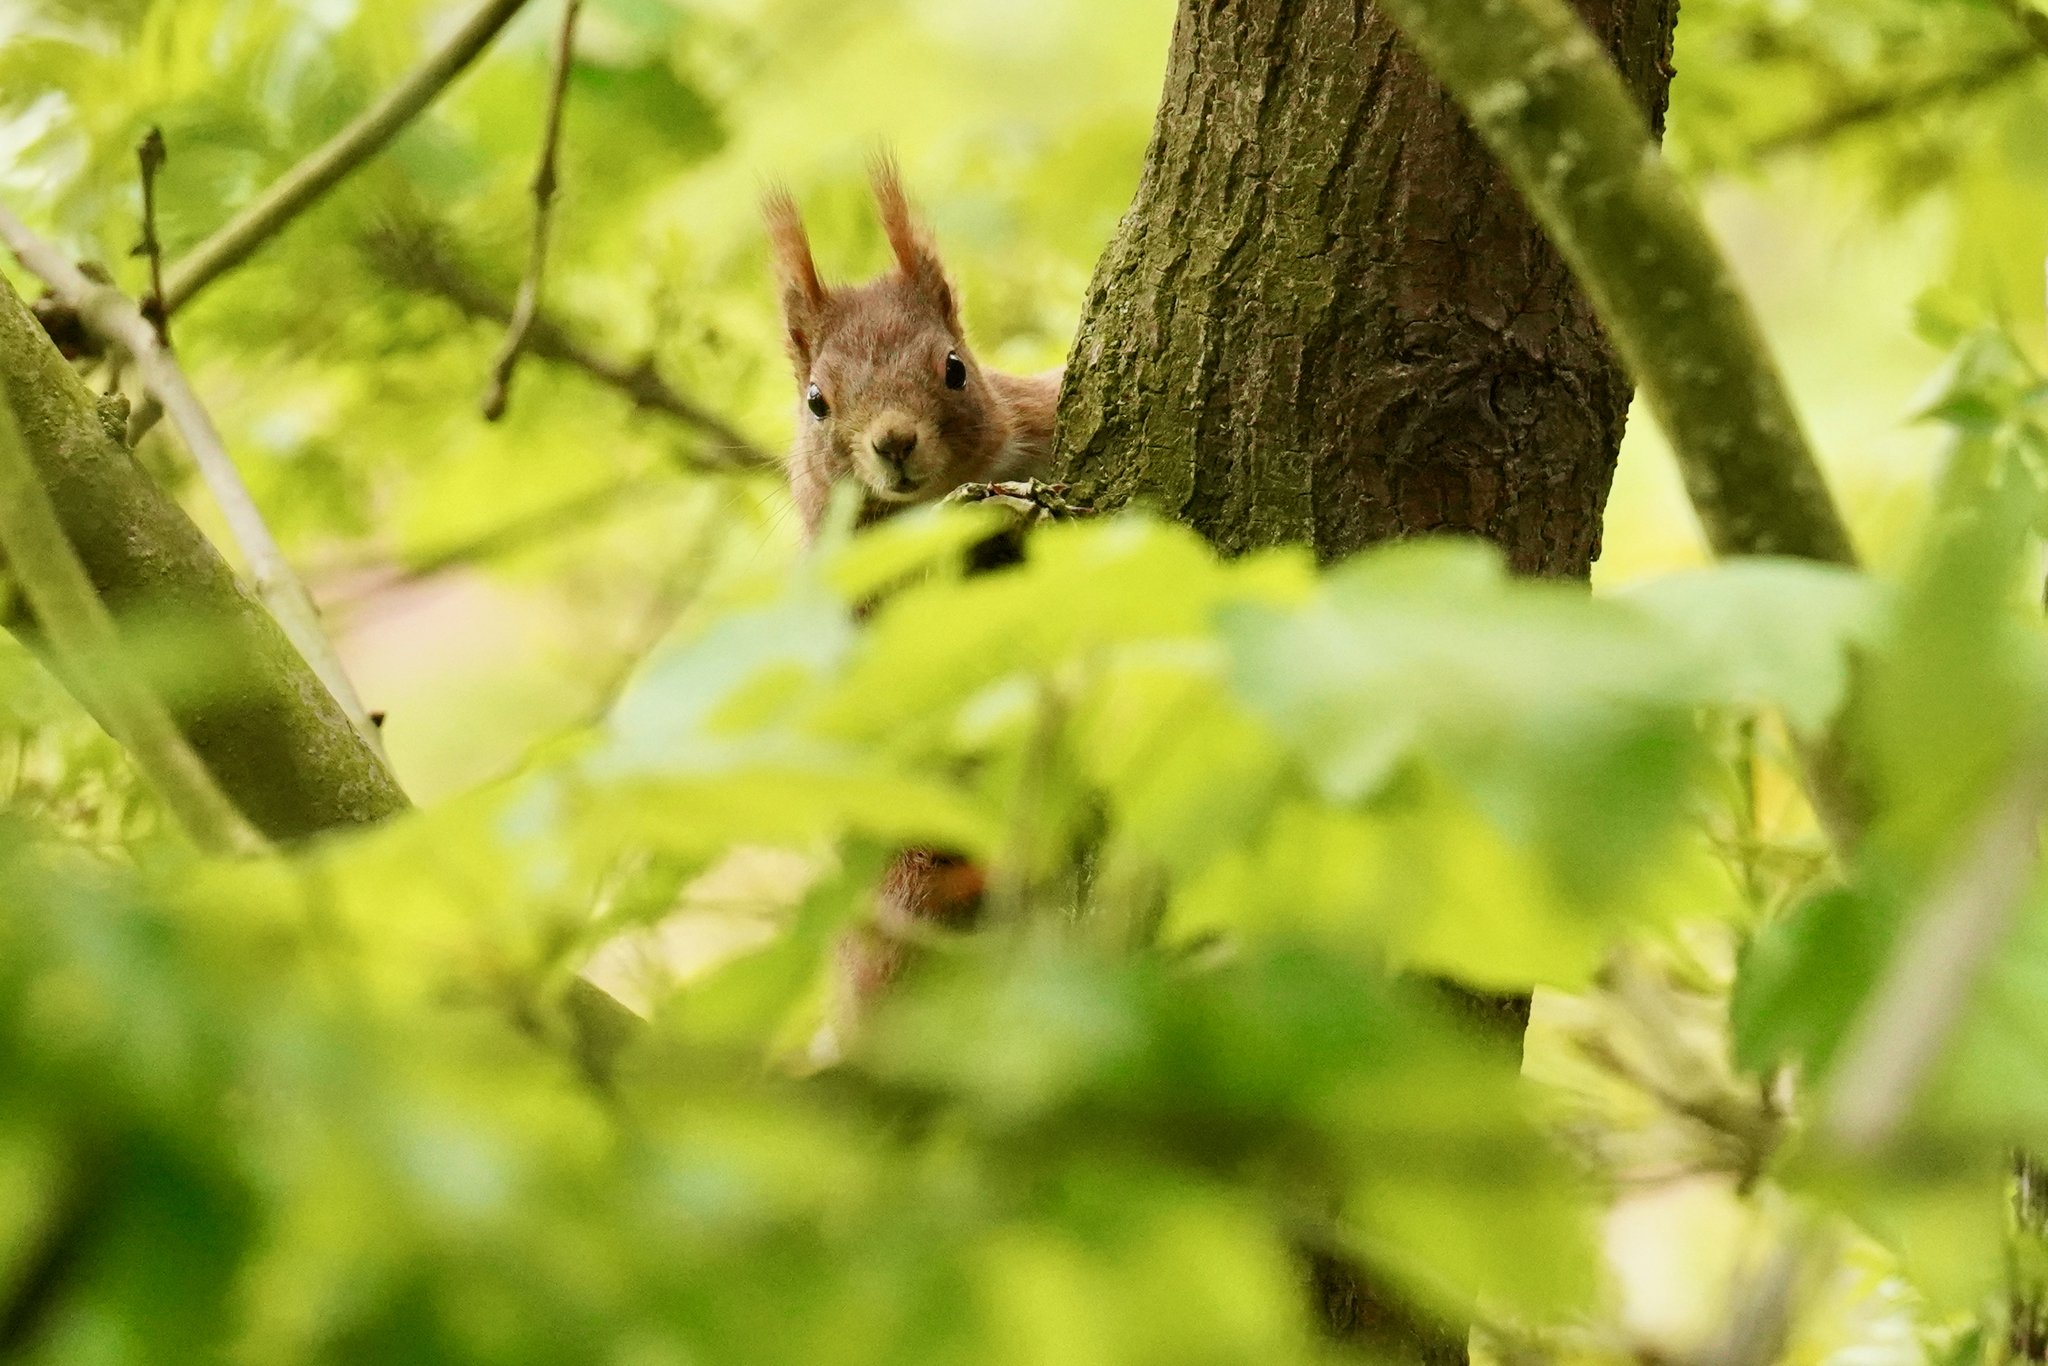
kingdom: Animalia
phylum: Chordata
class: Mammalia
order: Rodentia
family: Sciuridae
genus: Sciurus
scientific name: Sciurus vulgaris
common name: Eurasian red squirrel
